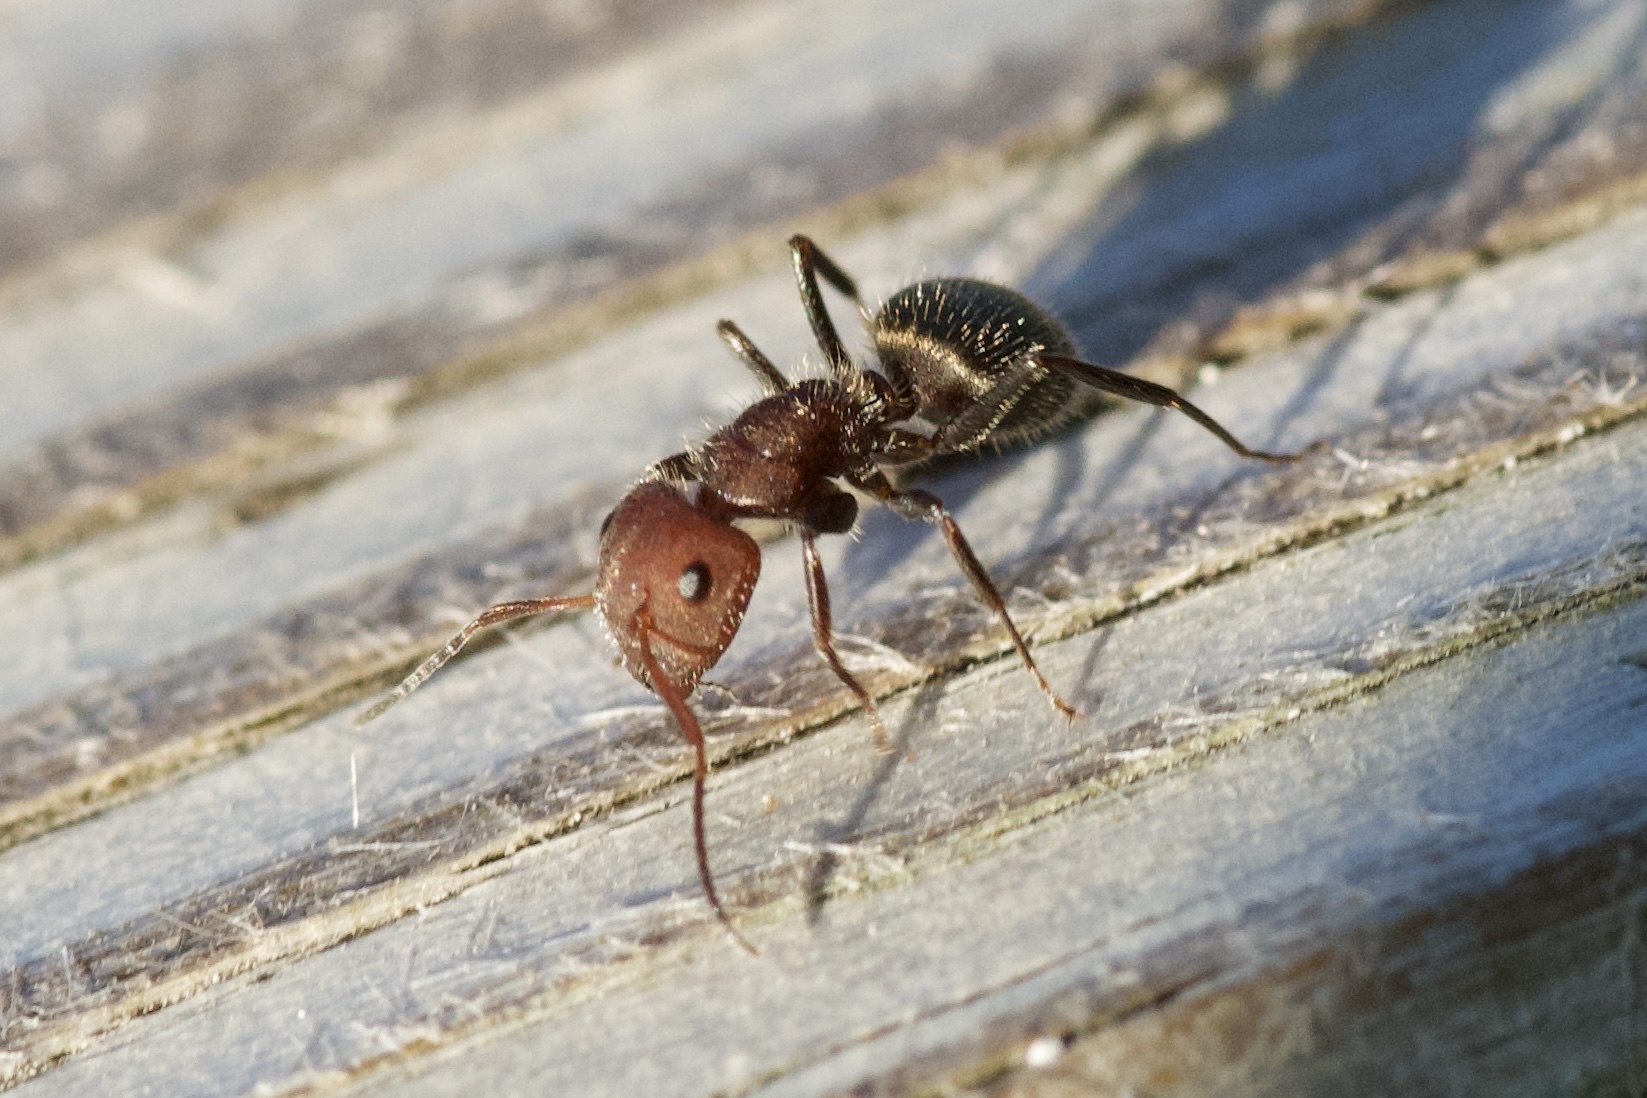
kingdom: Animalia
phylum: Arthropoda
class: Insecta
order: Hymenoptera
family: Formicidae
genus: Camponotus
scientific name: Camponotus planatus
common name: Compact carpenter ant
